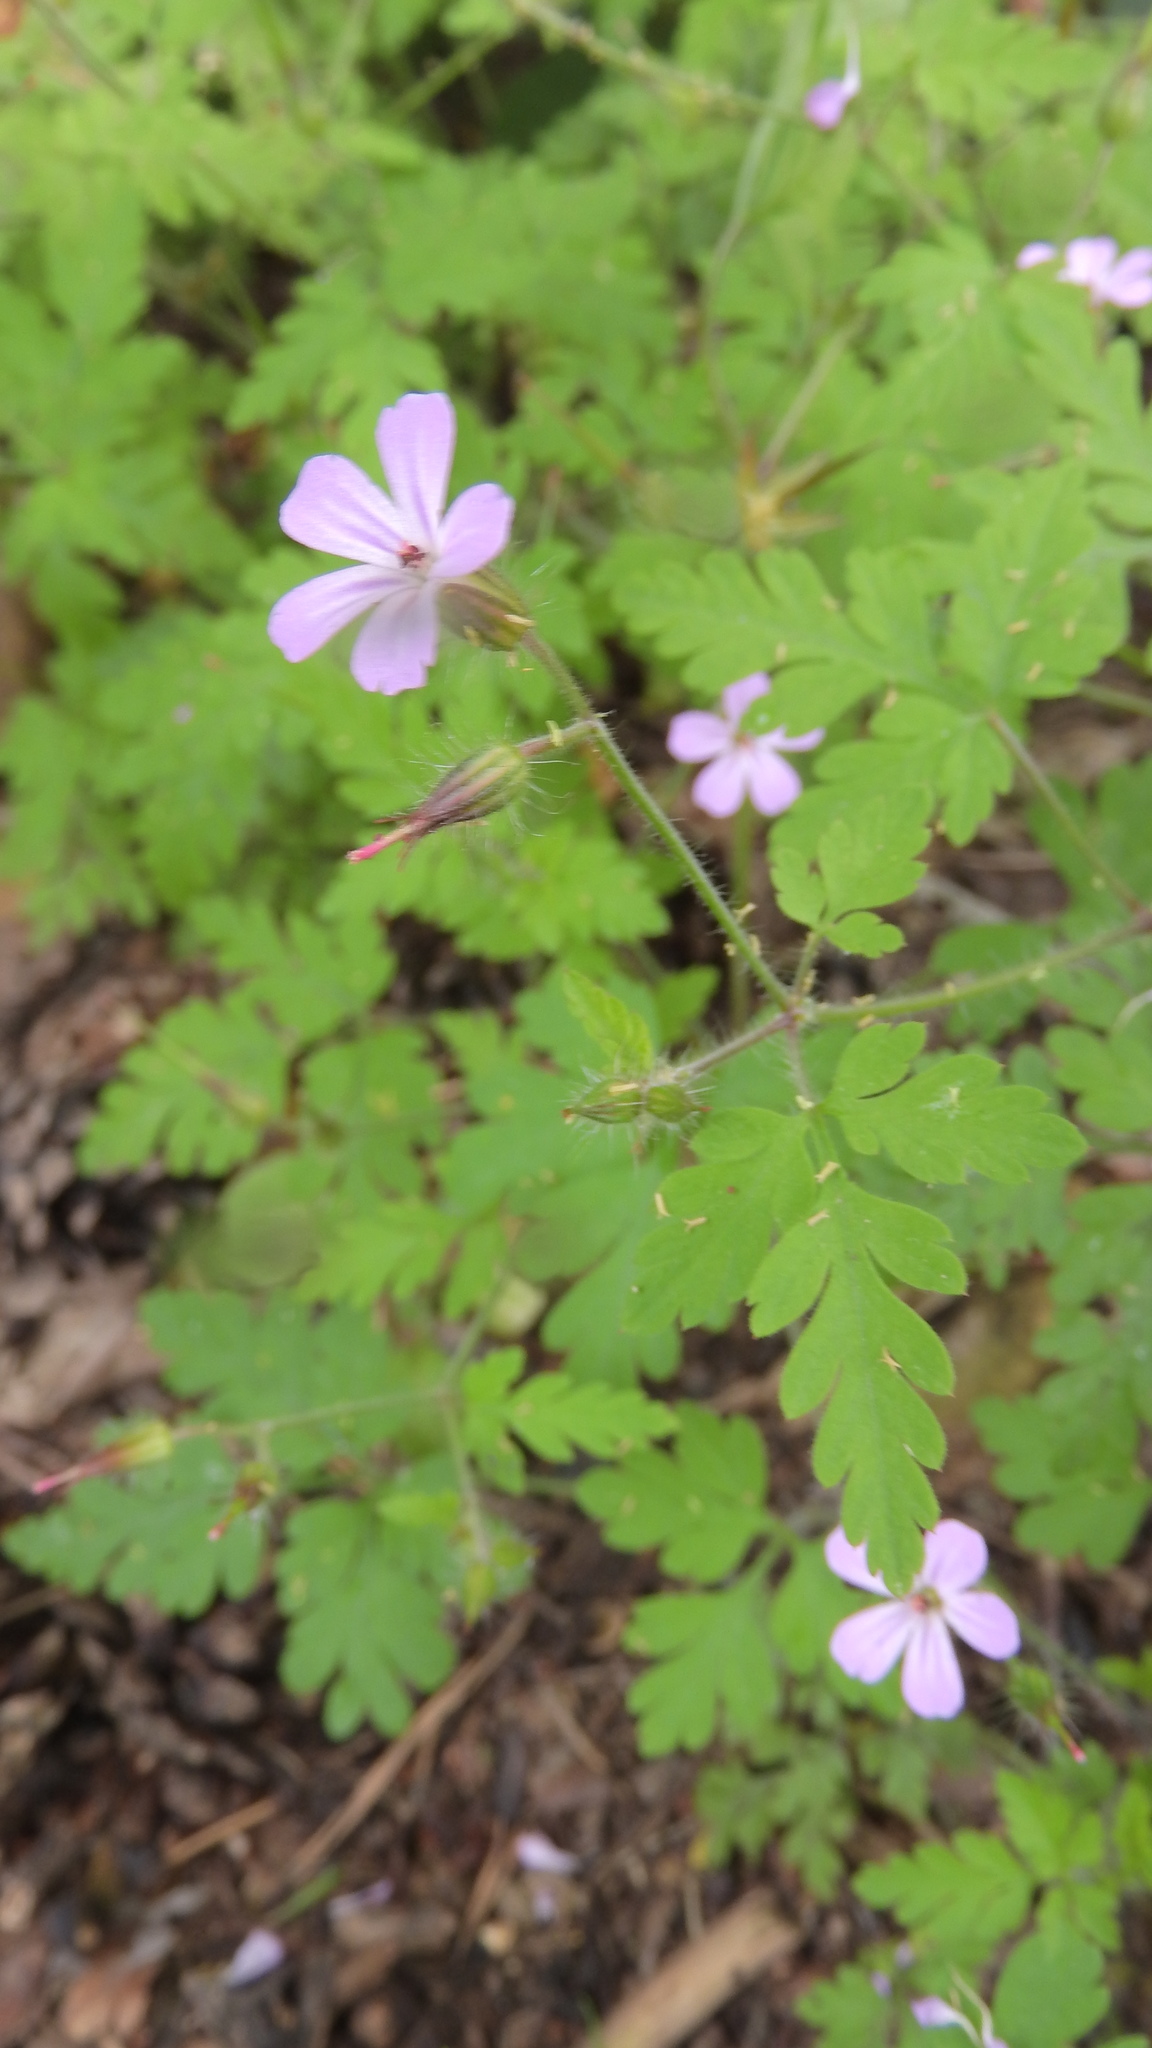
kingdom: Plantae
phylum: Tracheophyta
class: Magnoliopsida
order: Geraniales
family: Geraniaceae
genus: Geranium
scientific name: Geranium robertianum
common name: Herb-robert
